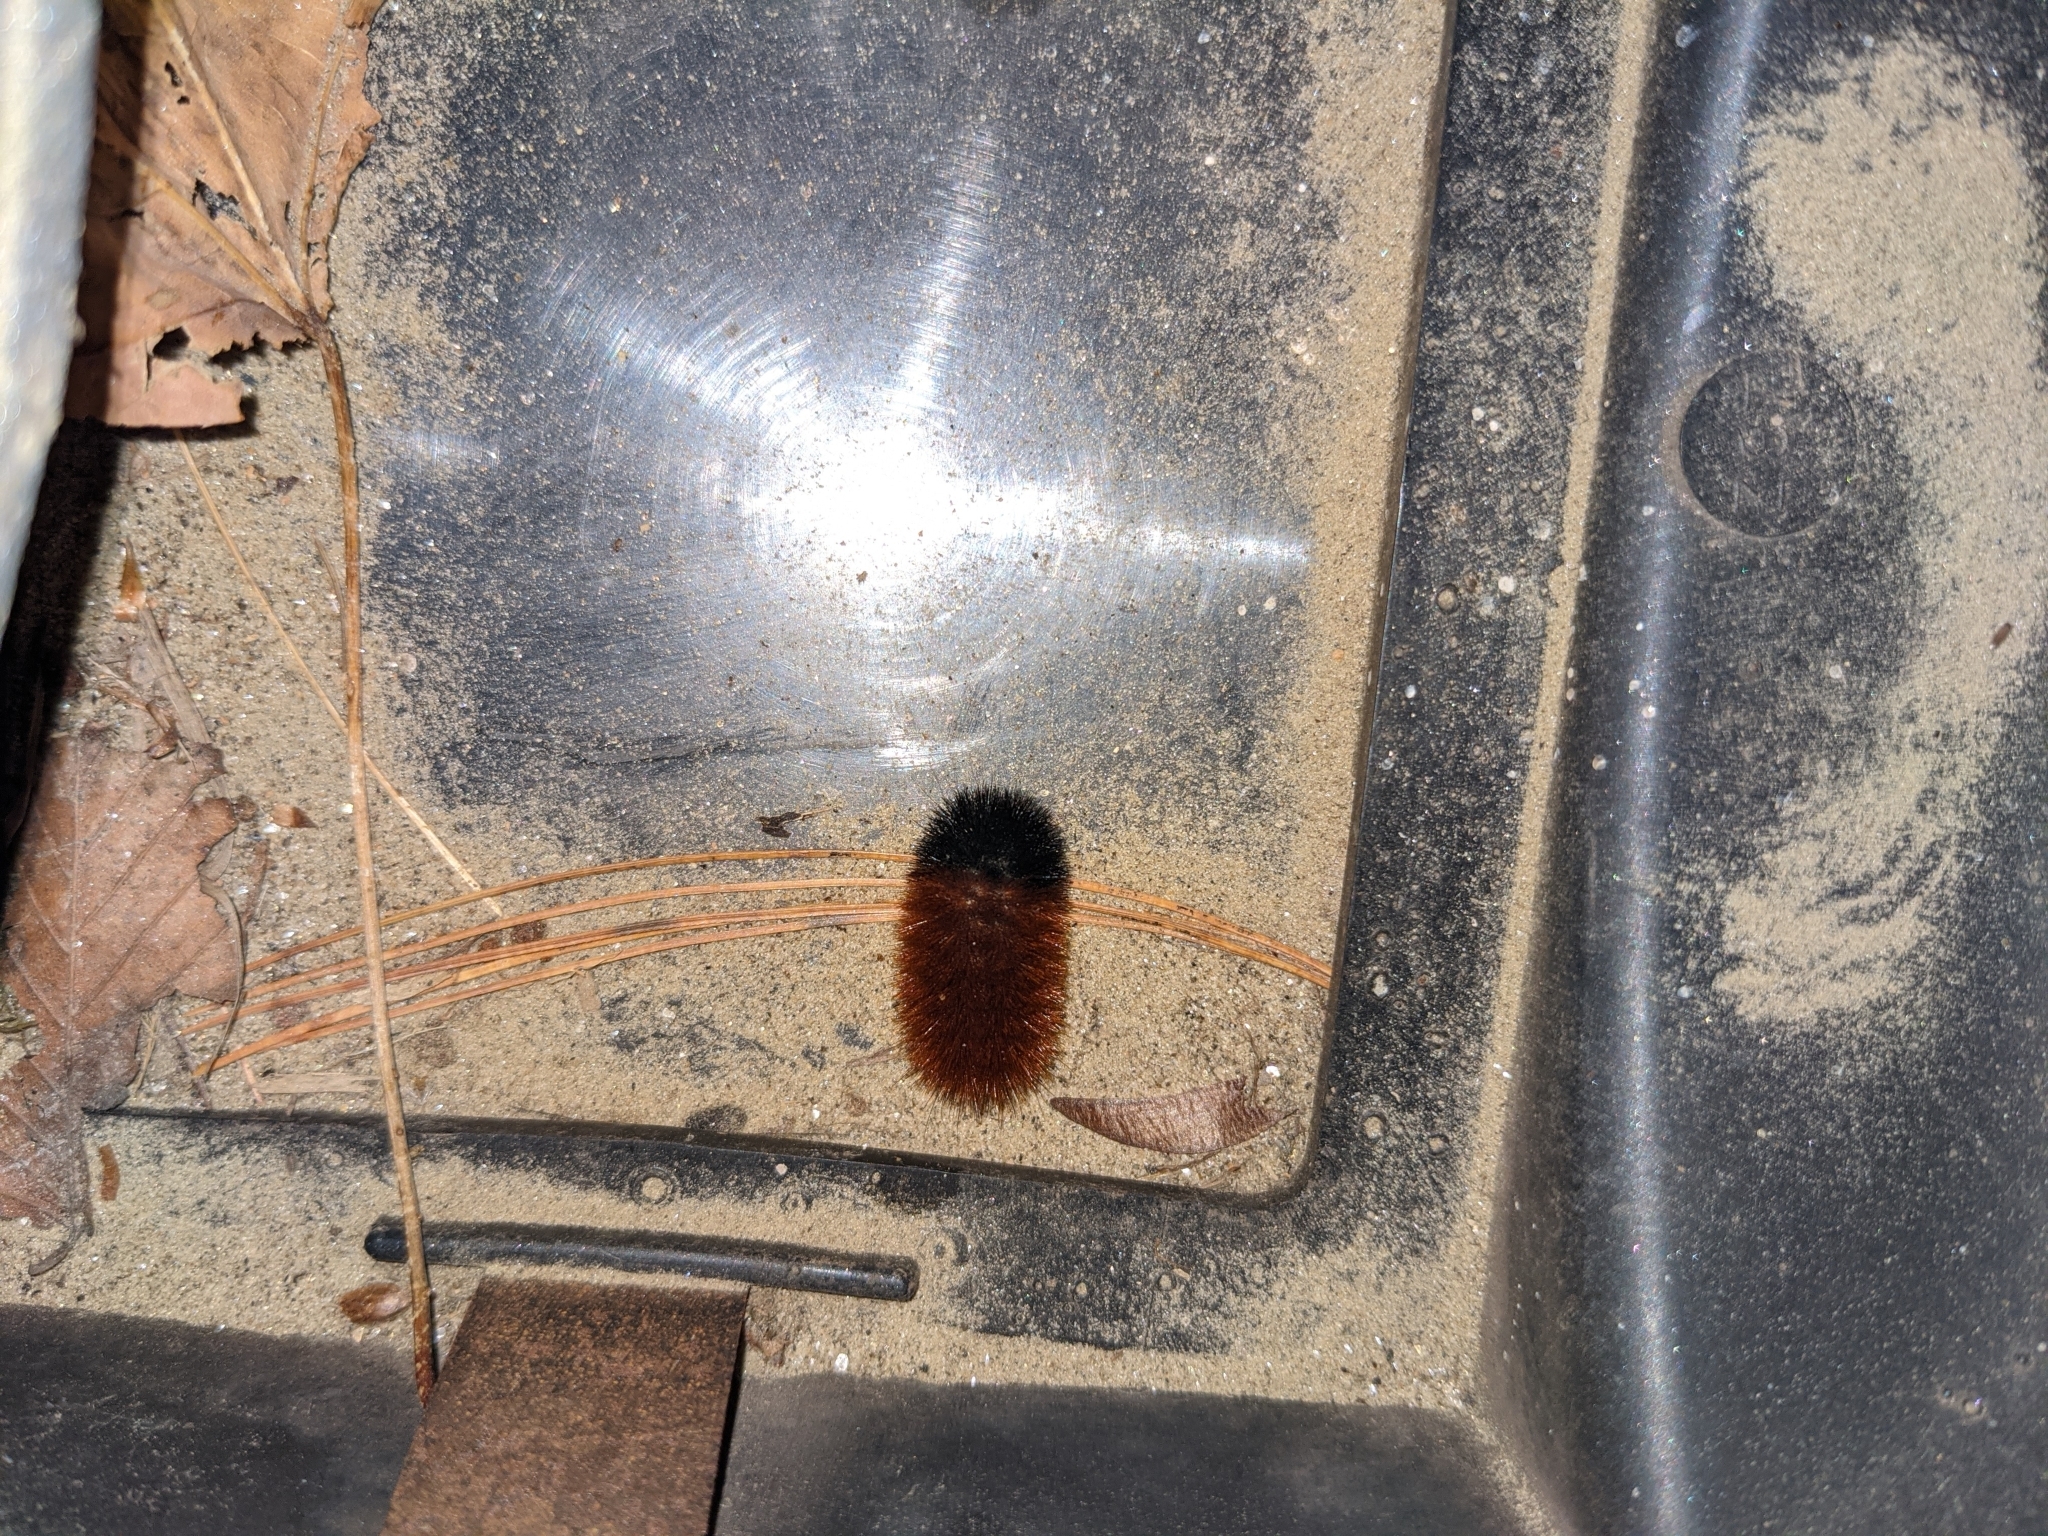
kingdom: Animalia
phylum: Arthropoda
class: Insecta
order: Lepidoptera
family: Erebidae
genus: Pyrrharctia
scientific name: Pyrrharctia isabella
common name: Isabella tiger moth
